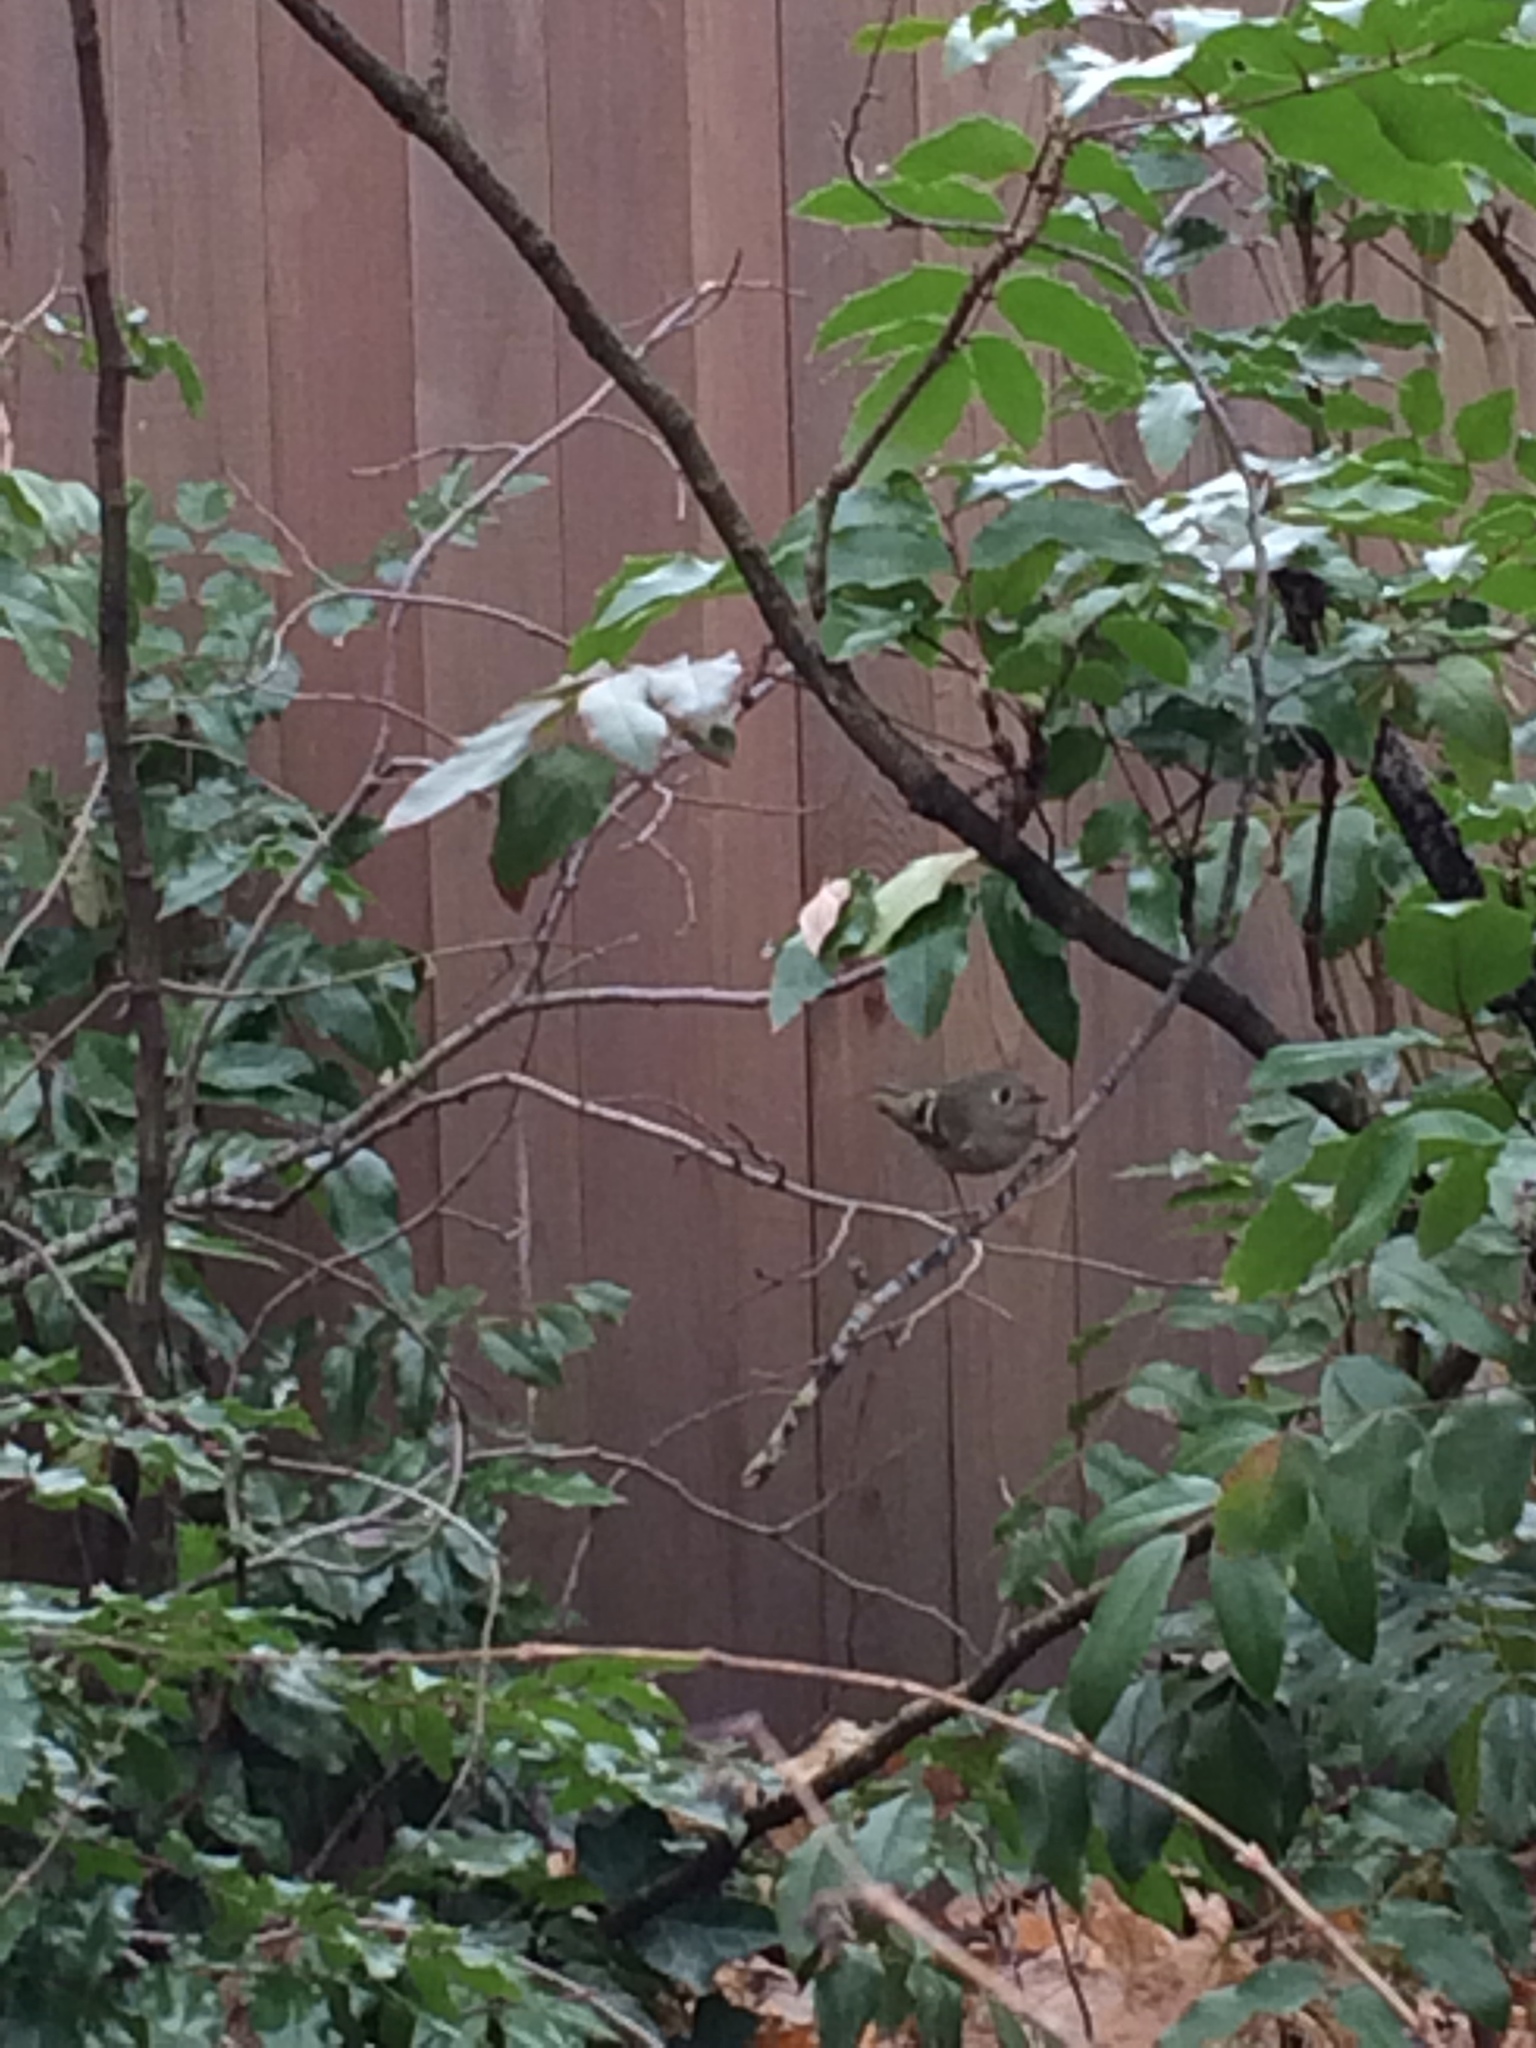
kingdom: Animalia
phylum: Chordata
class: Aves
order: Passeriformes
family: Regulidae
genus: Regulus
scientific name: Regulus calendula
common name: Ruby-crowned kinglet
